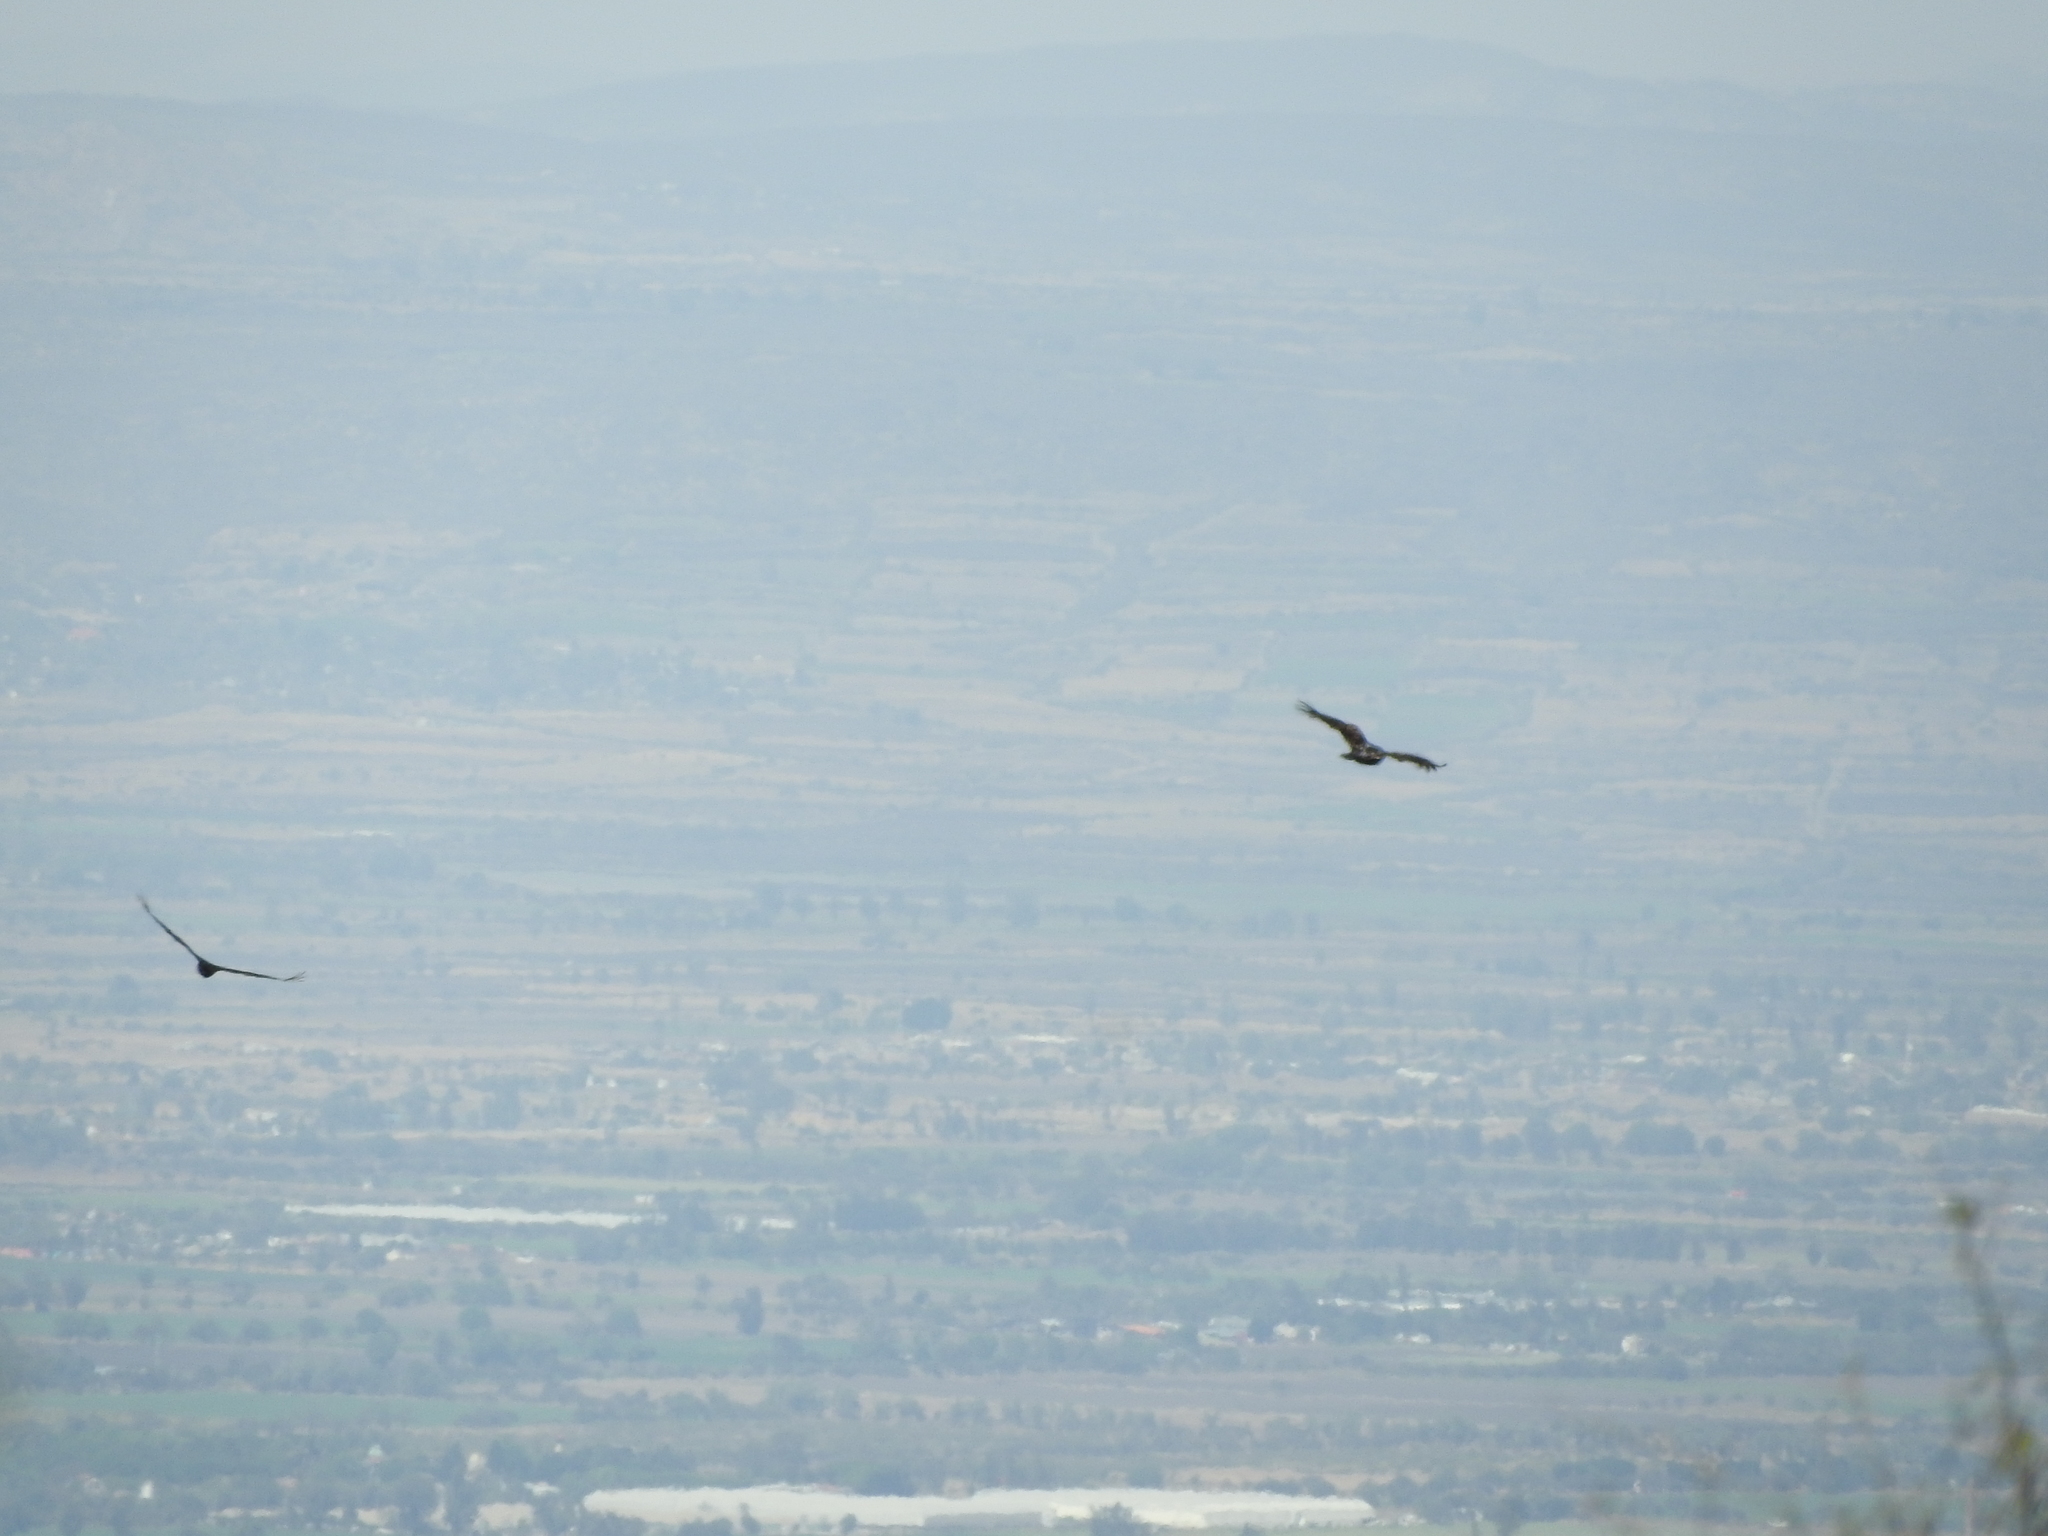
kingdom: Animalia
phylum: Chordata
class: Aves
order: Accipitriformes
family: Cathartidae
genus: Cathartes
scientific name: Cathartes aura
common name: Turkey vulture
